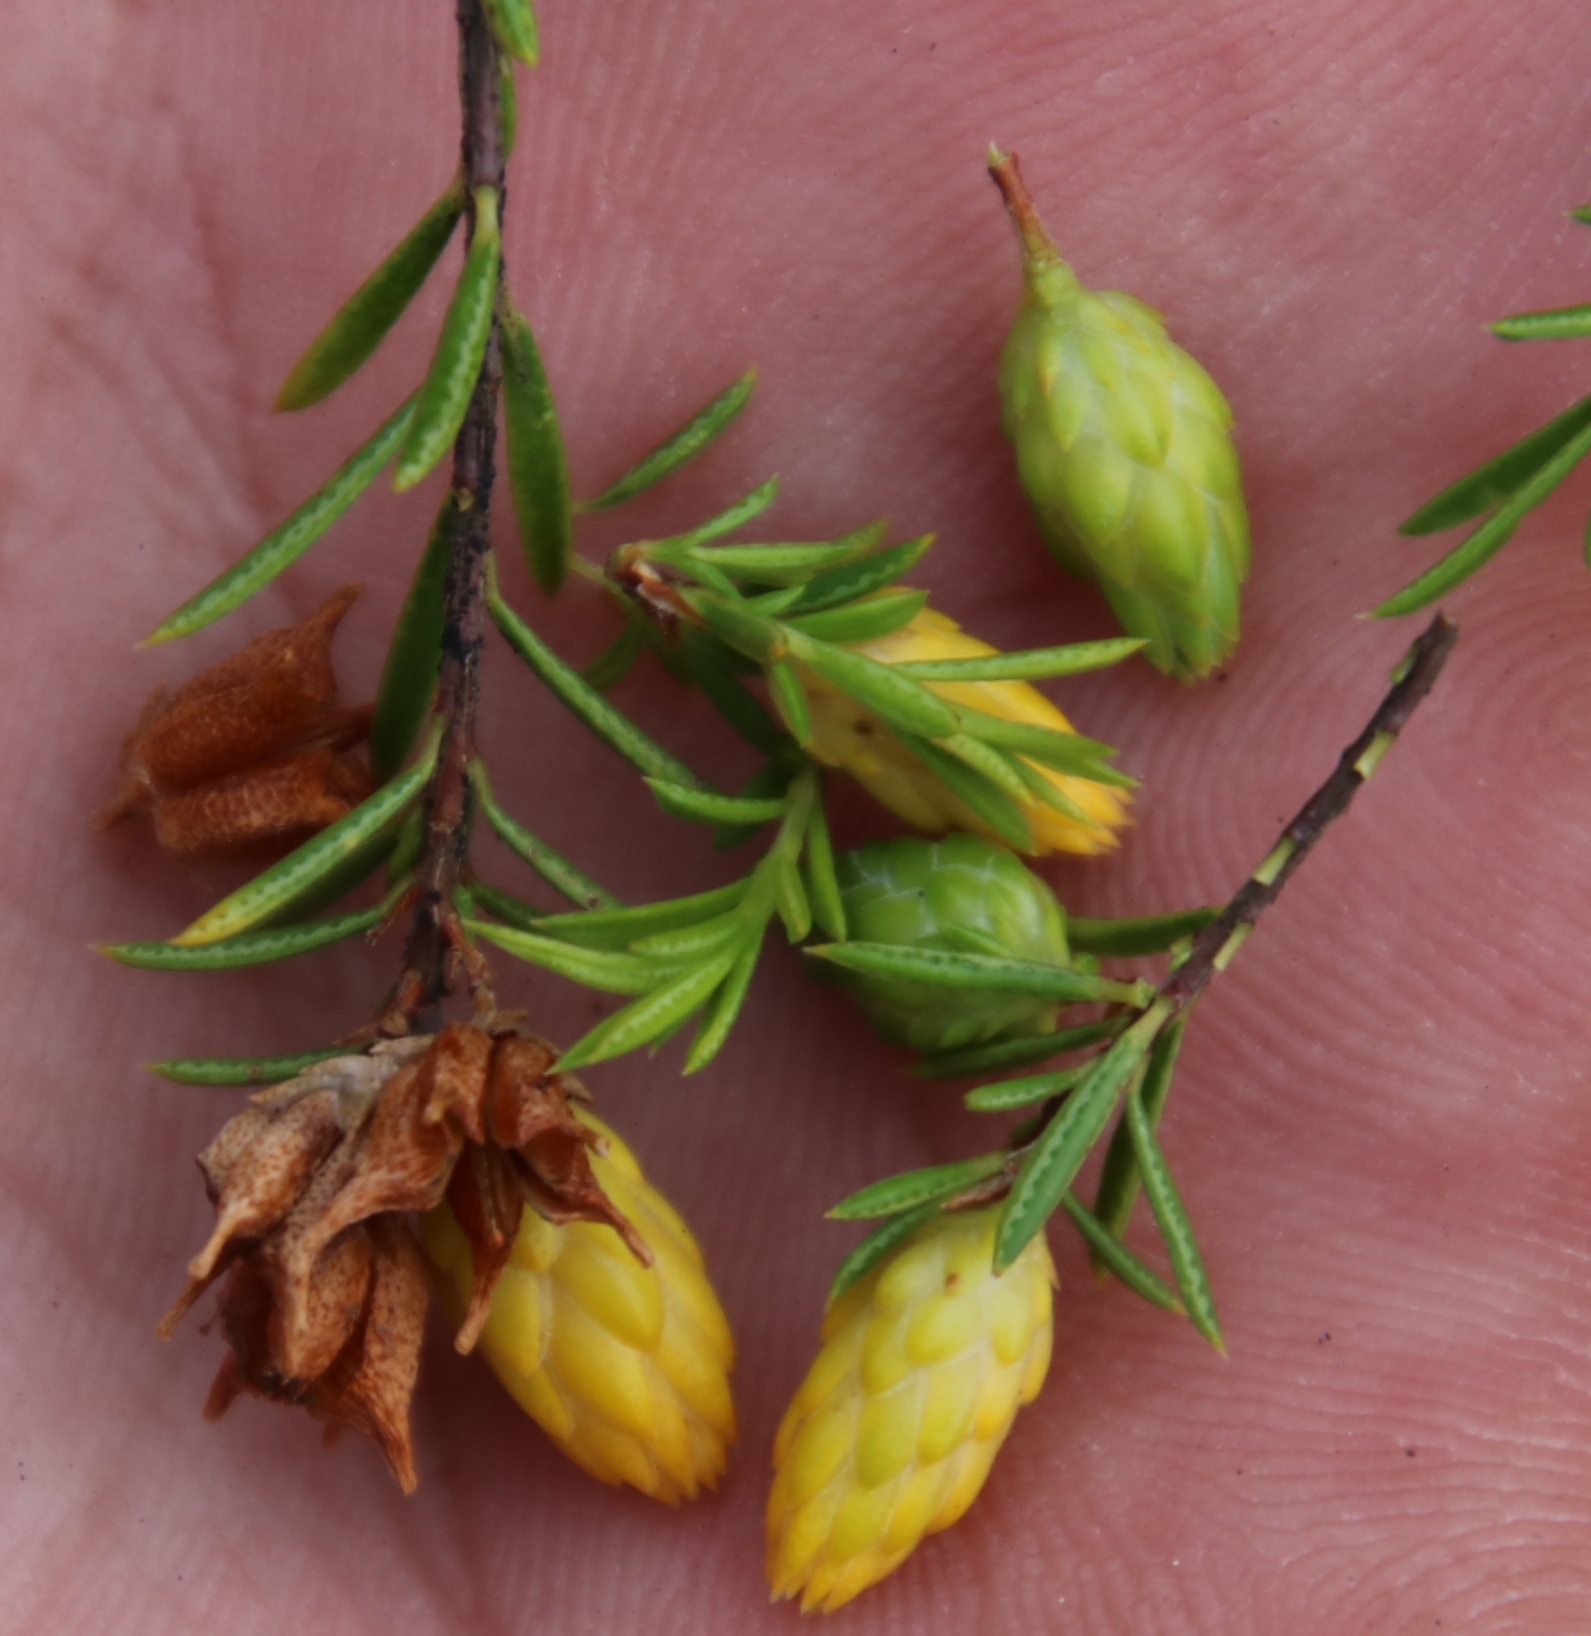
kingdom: Plantae
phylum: Tracheophyta
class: Magnoliopsida
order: Sapindales
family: Rutaceae
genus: Coleonema
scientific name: Coleonema album
